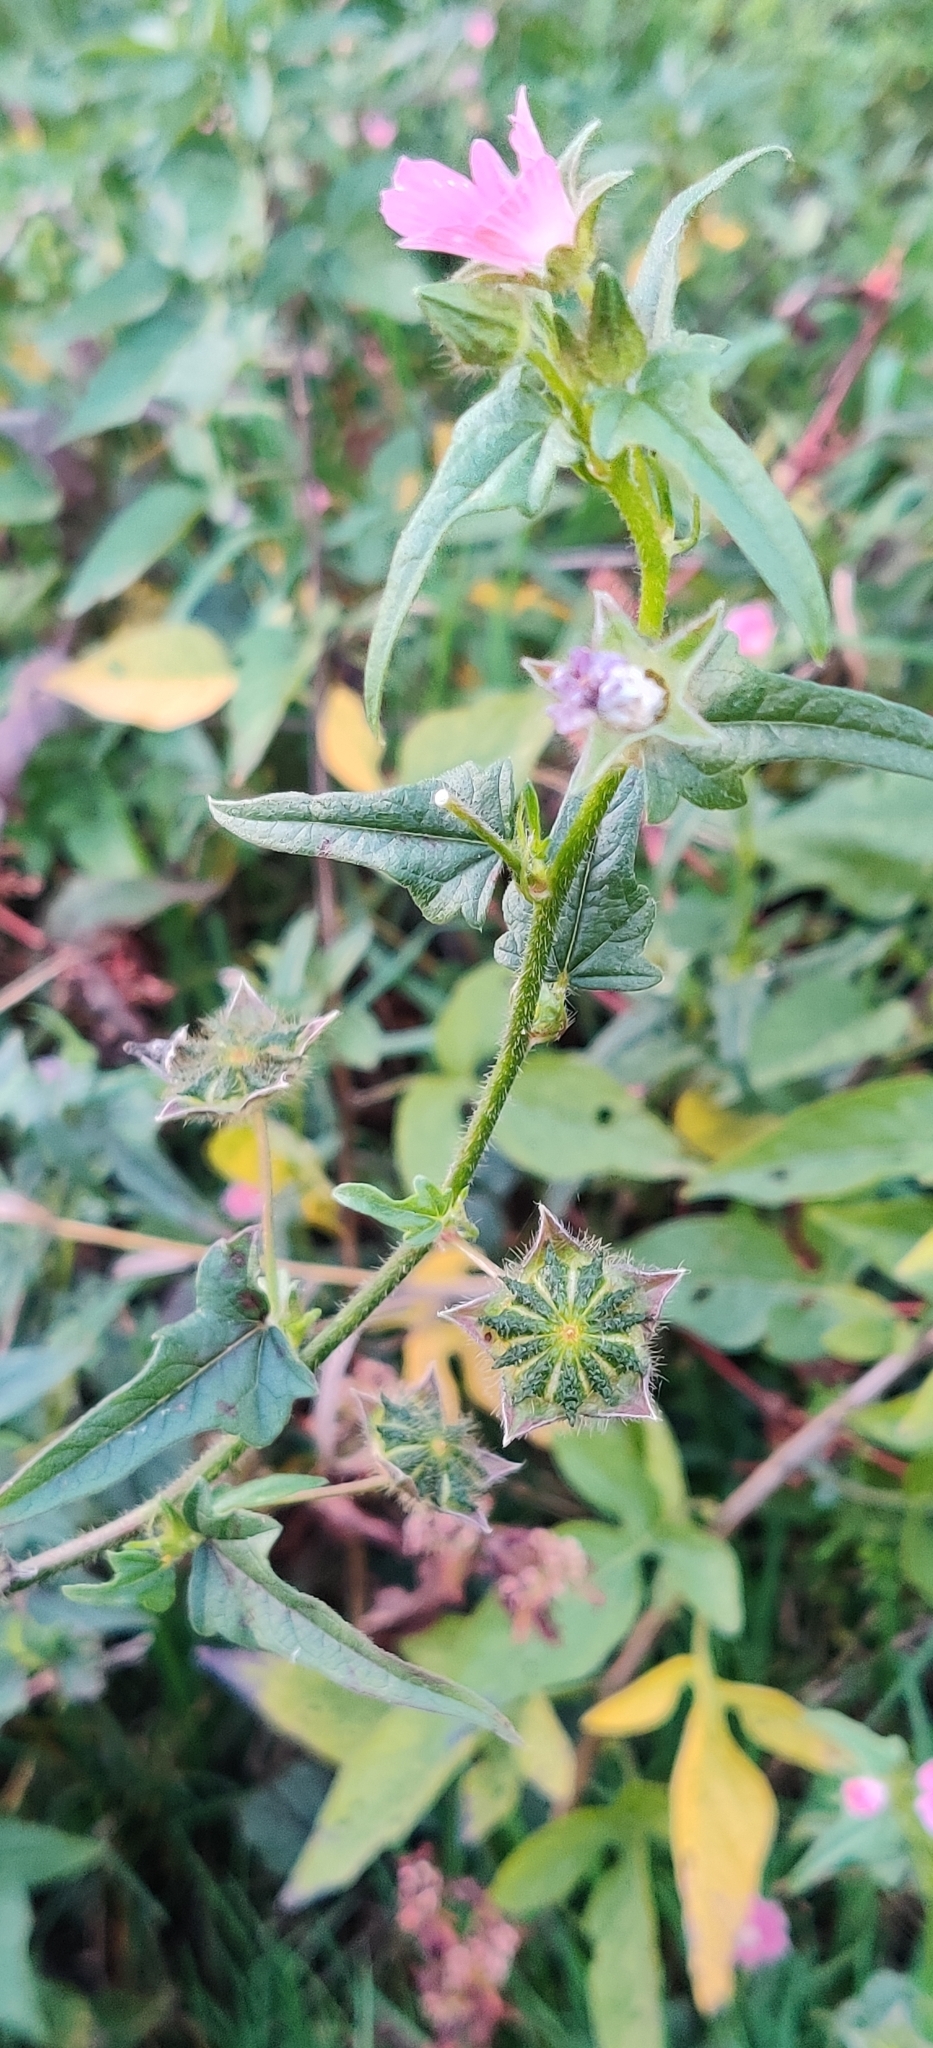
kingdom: Plantae
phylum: Tracheophyta
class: Magnoliopsida
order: Malvales
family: Malvaceae
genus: Anoda
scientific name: Anoda cristata
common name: Spurred anoda
